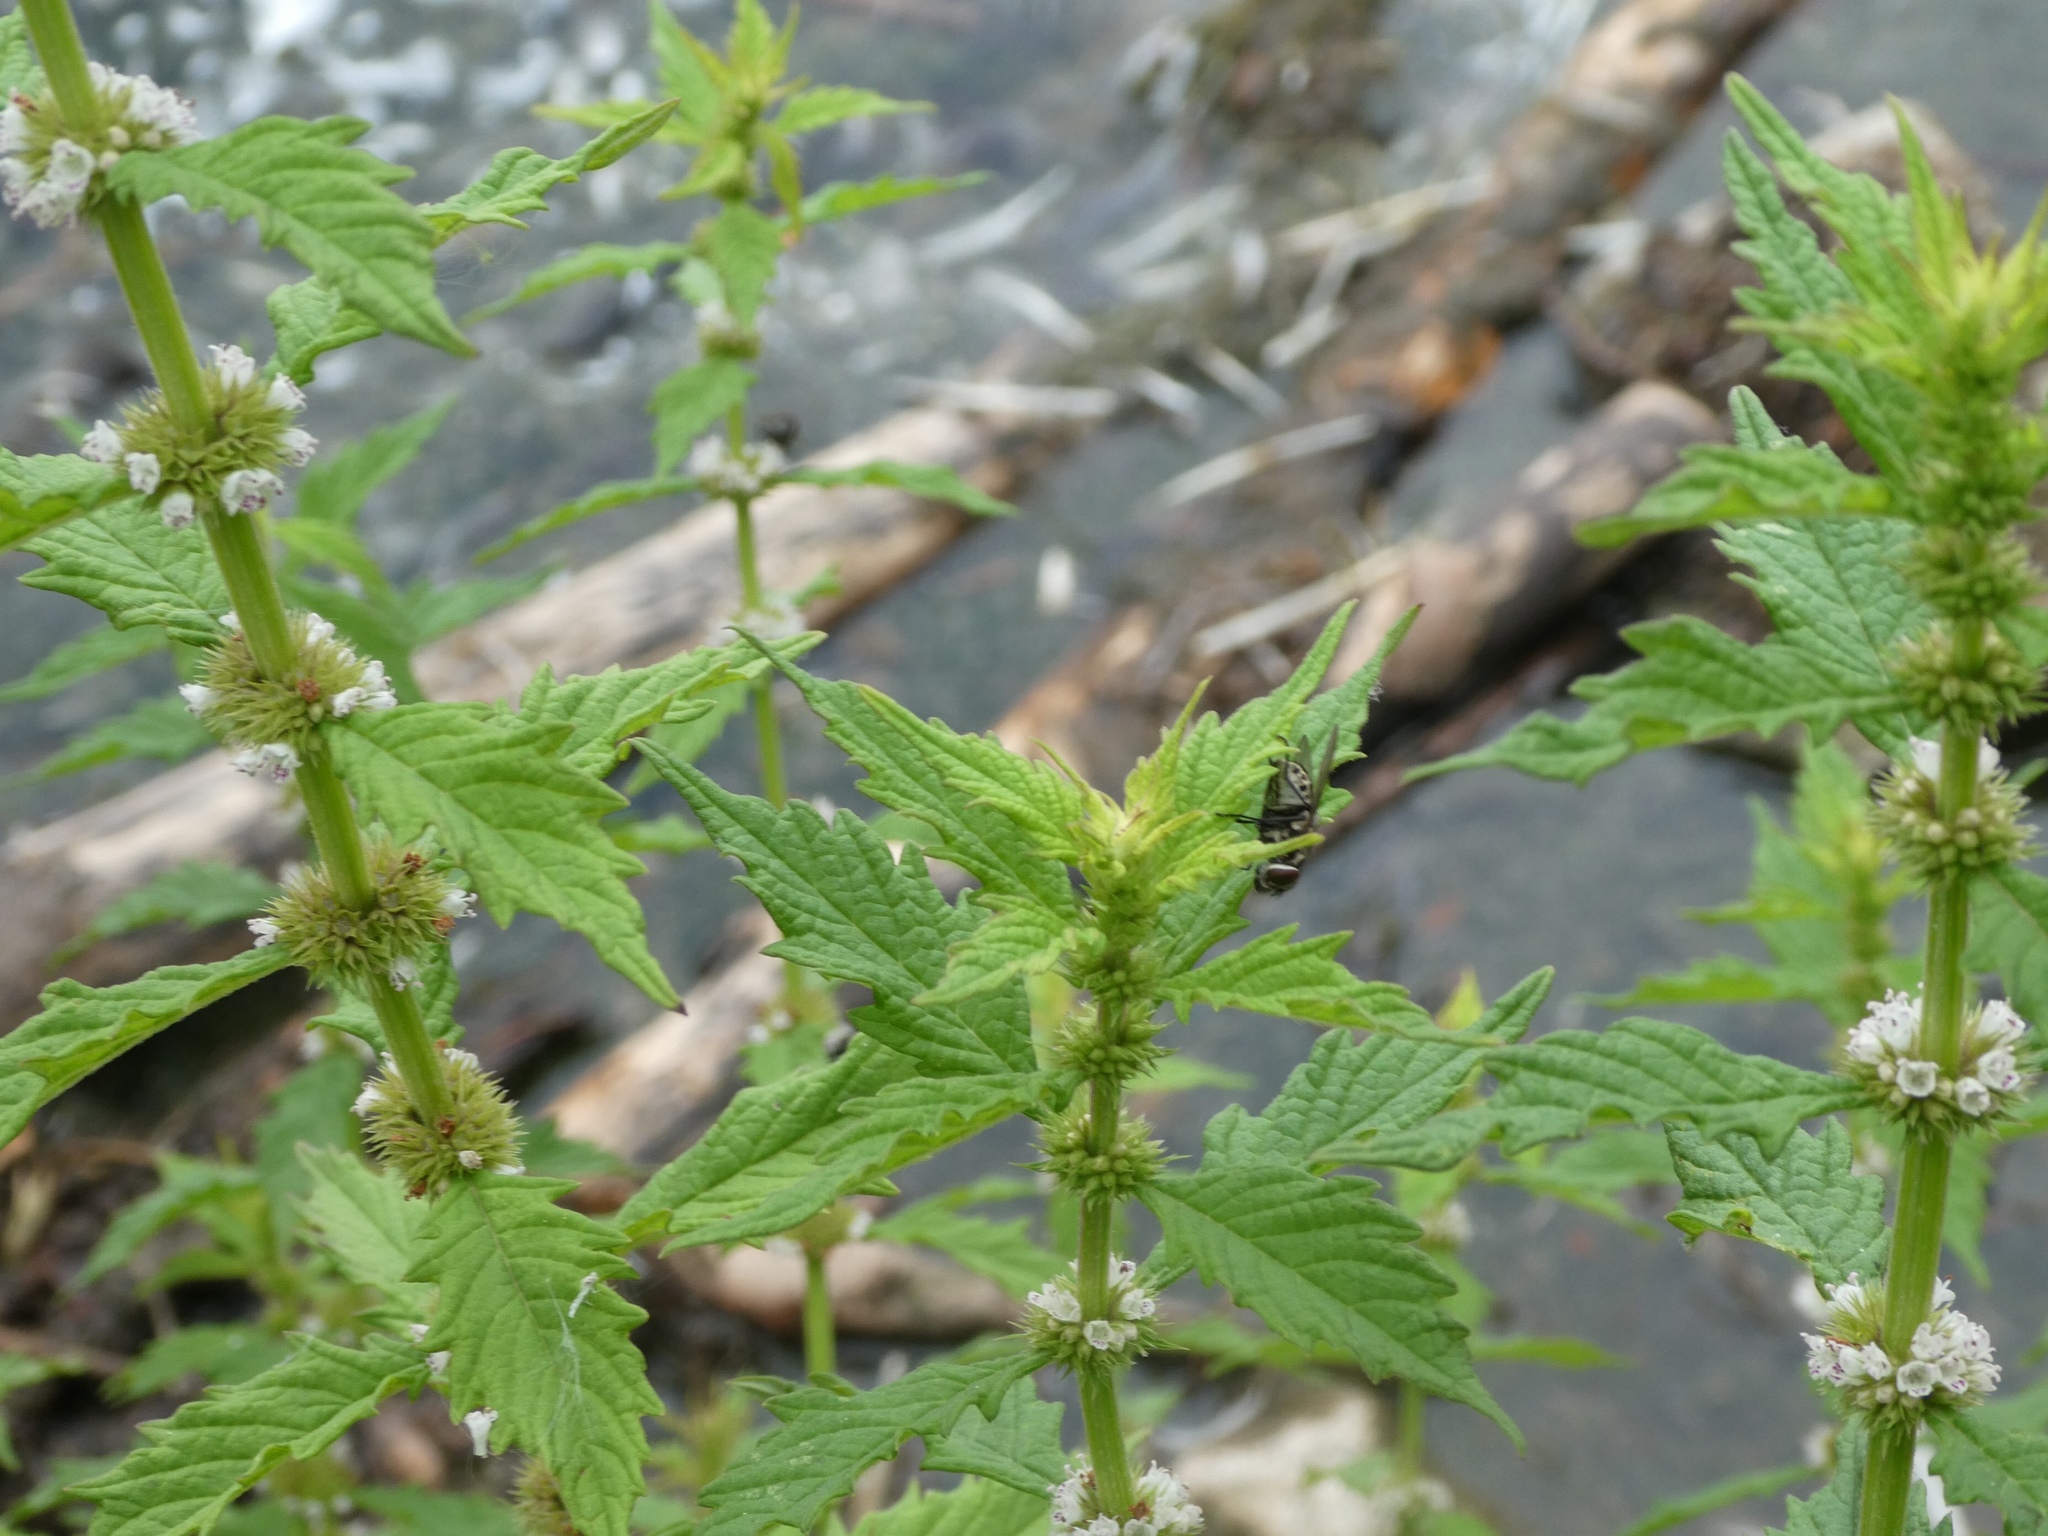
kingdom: Plantae
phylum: Tracheophyta
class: Magnoliopsida
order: Lamiales
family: Lamiaceae
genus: Lycopus
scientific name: Lycopus europaeus
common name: European bugleweed
